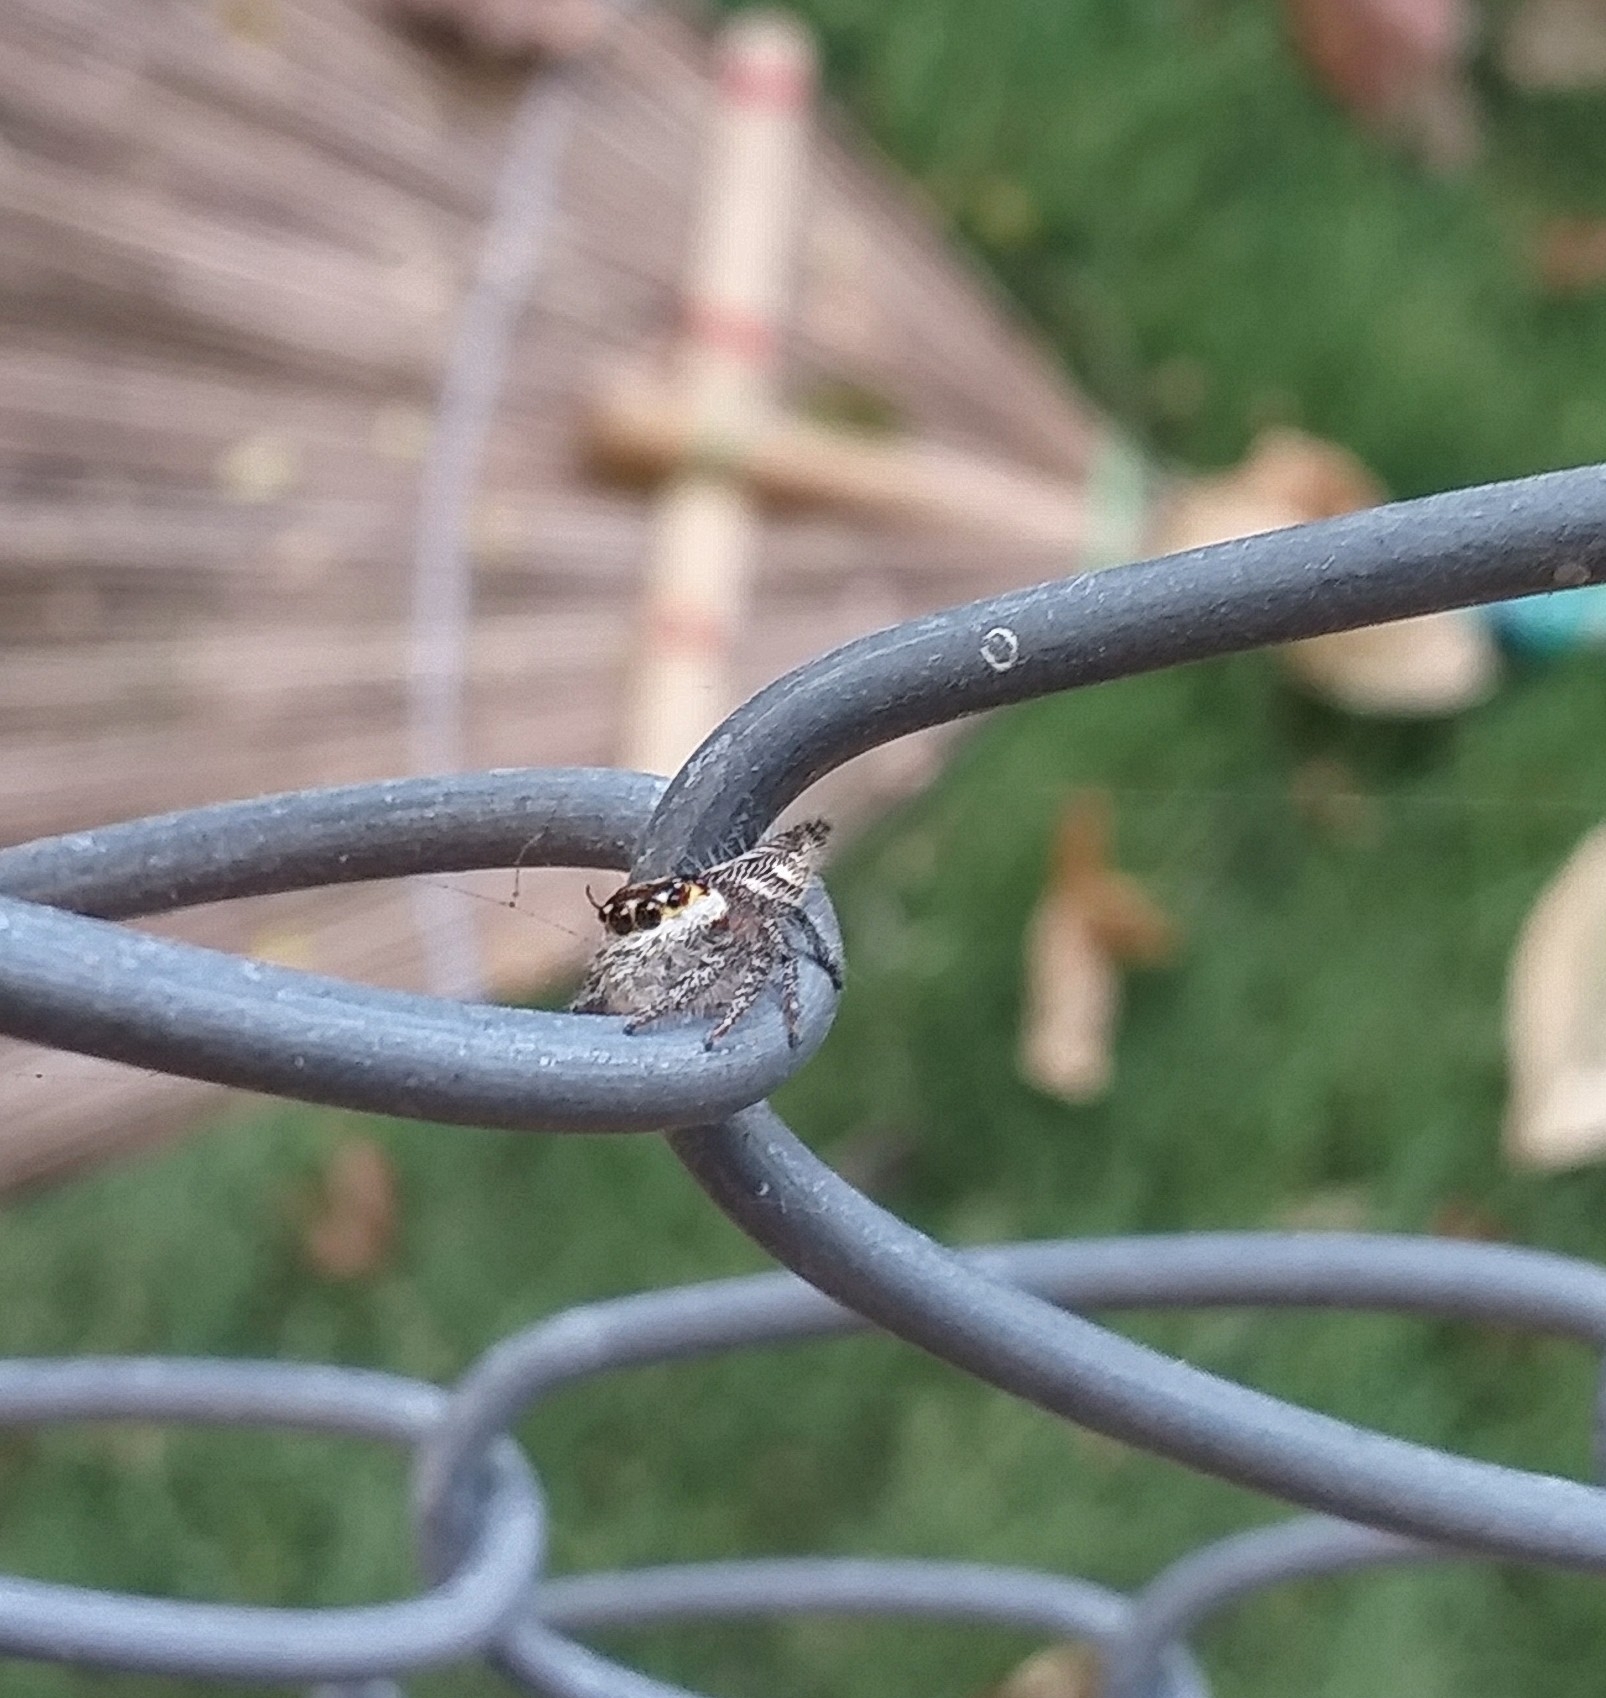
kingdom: Animalia
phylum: Arthropoda
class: Arachnida
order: Araneae
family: Salticidae
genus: Hyllus
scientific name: Hyllus semicupreus
